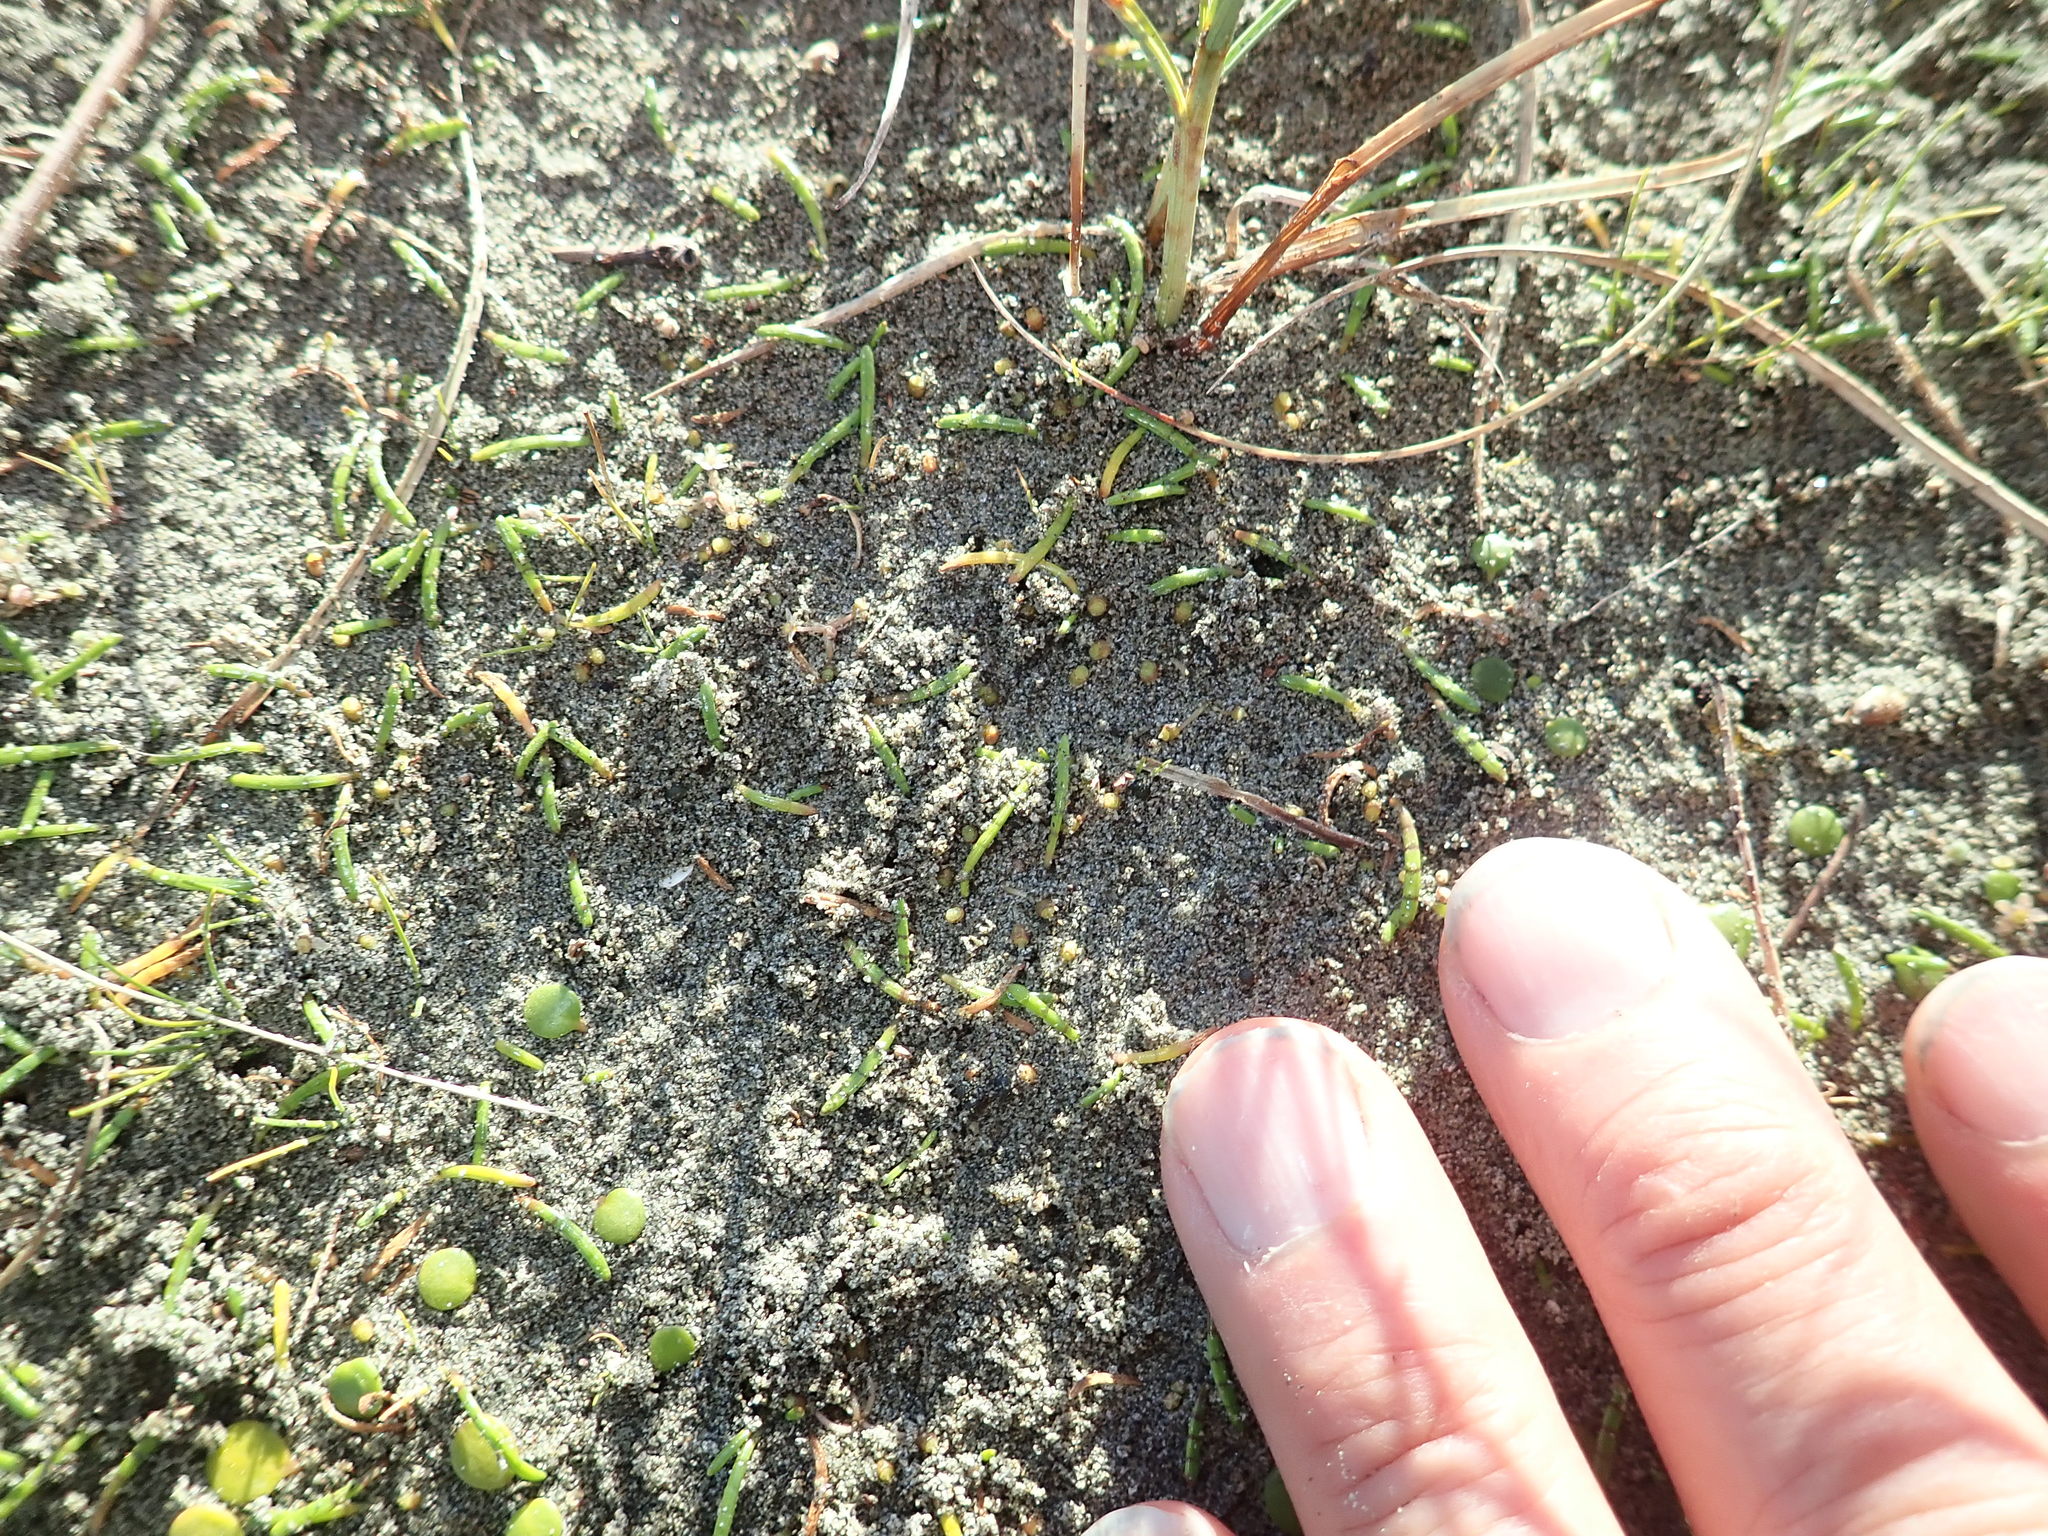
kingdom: Plantae
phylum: Tracheophyta
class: Magnoliopsida
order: Apiales
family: Apiaceae
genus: Lilaeopsis
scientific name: Lilaeopsis novae-zelandiae
